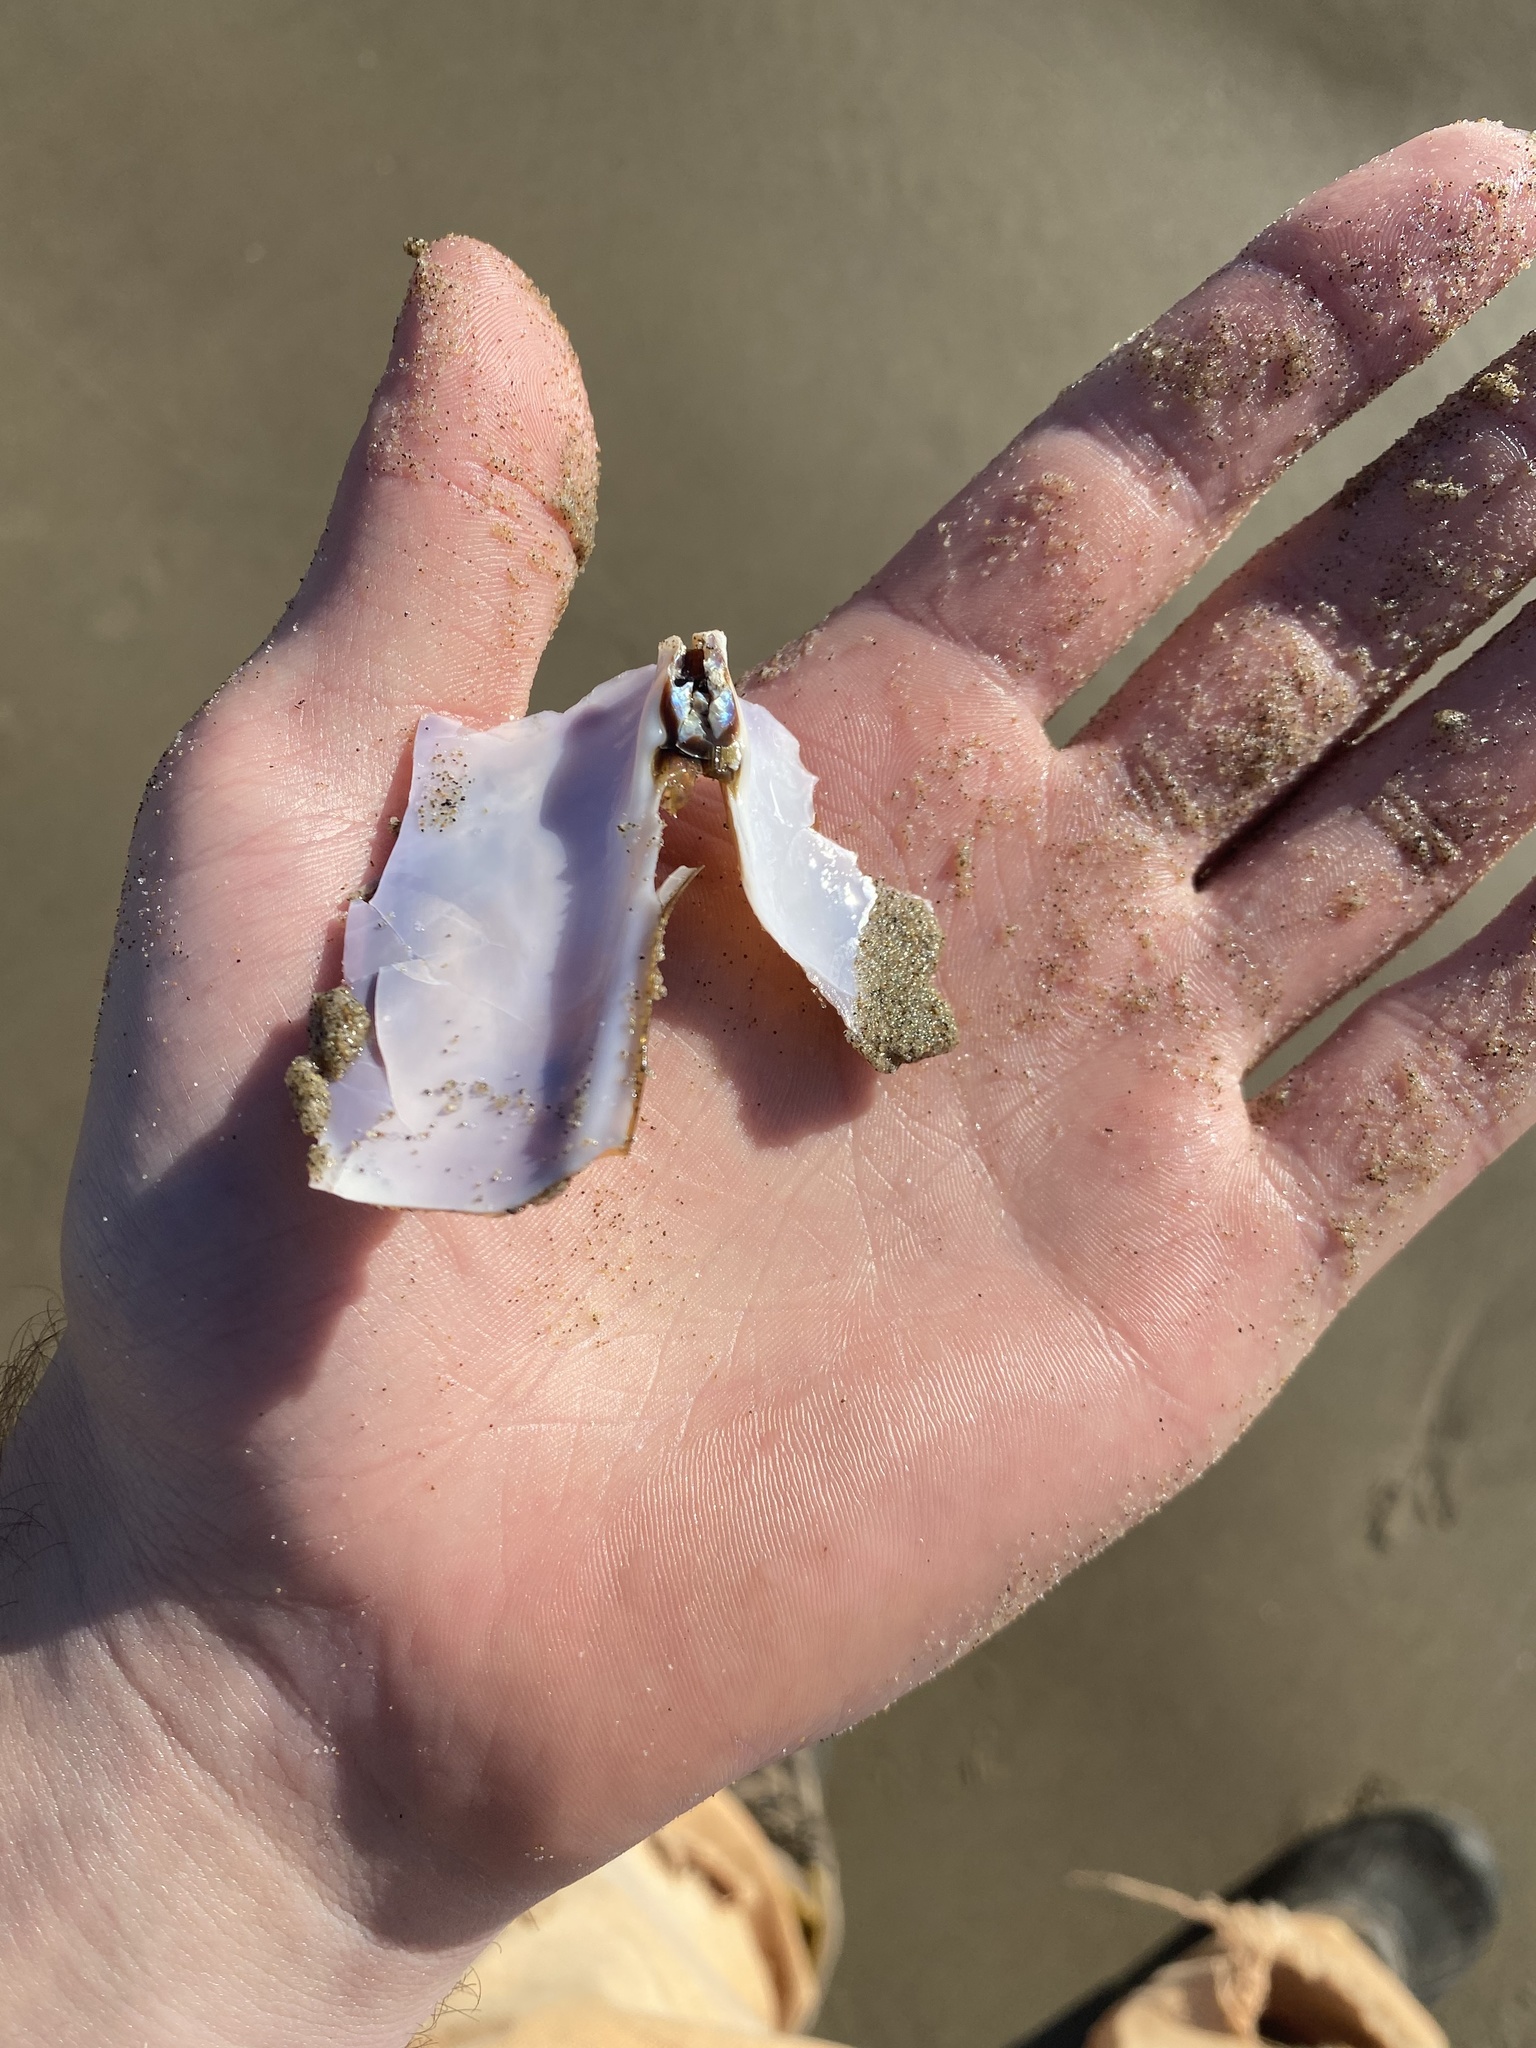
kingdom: Animalia
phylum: Mollusca
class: Bivalvia
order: Adapedonta
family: Pharidae
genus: Siliqua
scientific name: Siliqua patula
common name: Pacific razor clam
